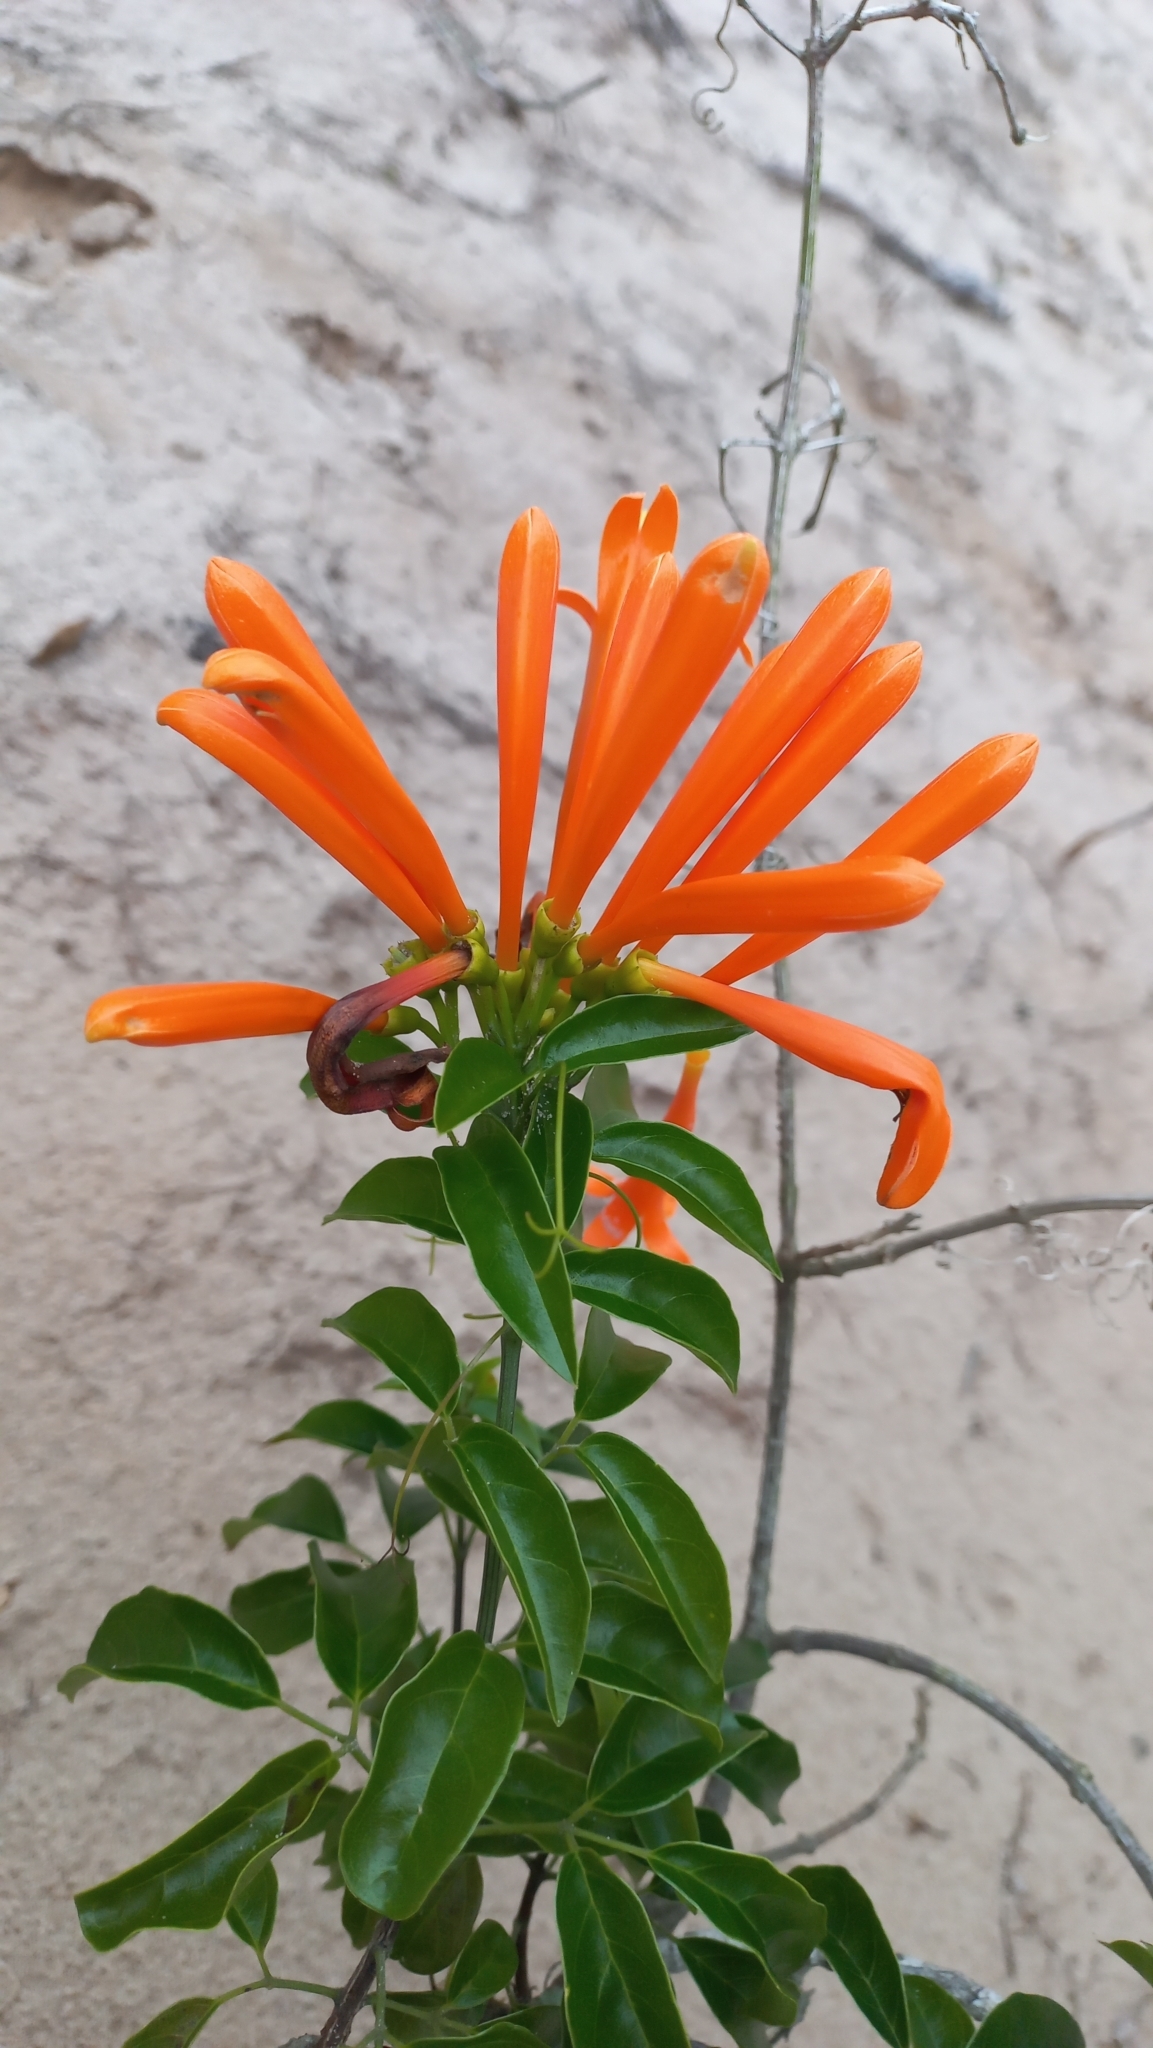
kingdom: Plantae
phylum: Tracheophyta
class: Magnoliopsida
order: Lamiales
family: Bignoniaceae
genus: Pyrostegia
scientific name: Pyrostegia venusta
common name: Flamevine
